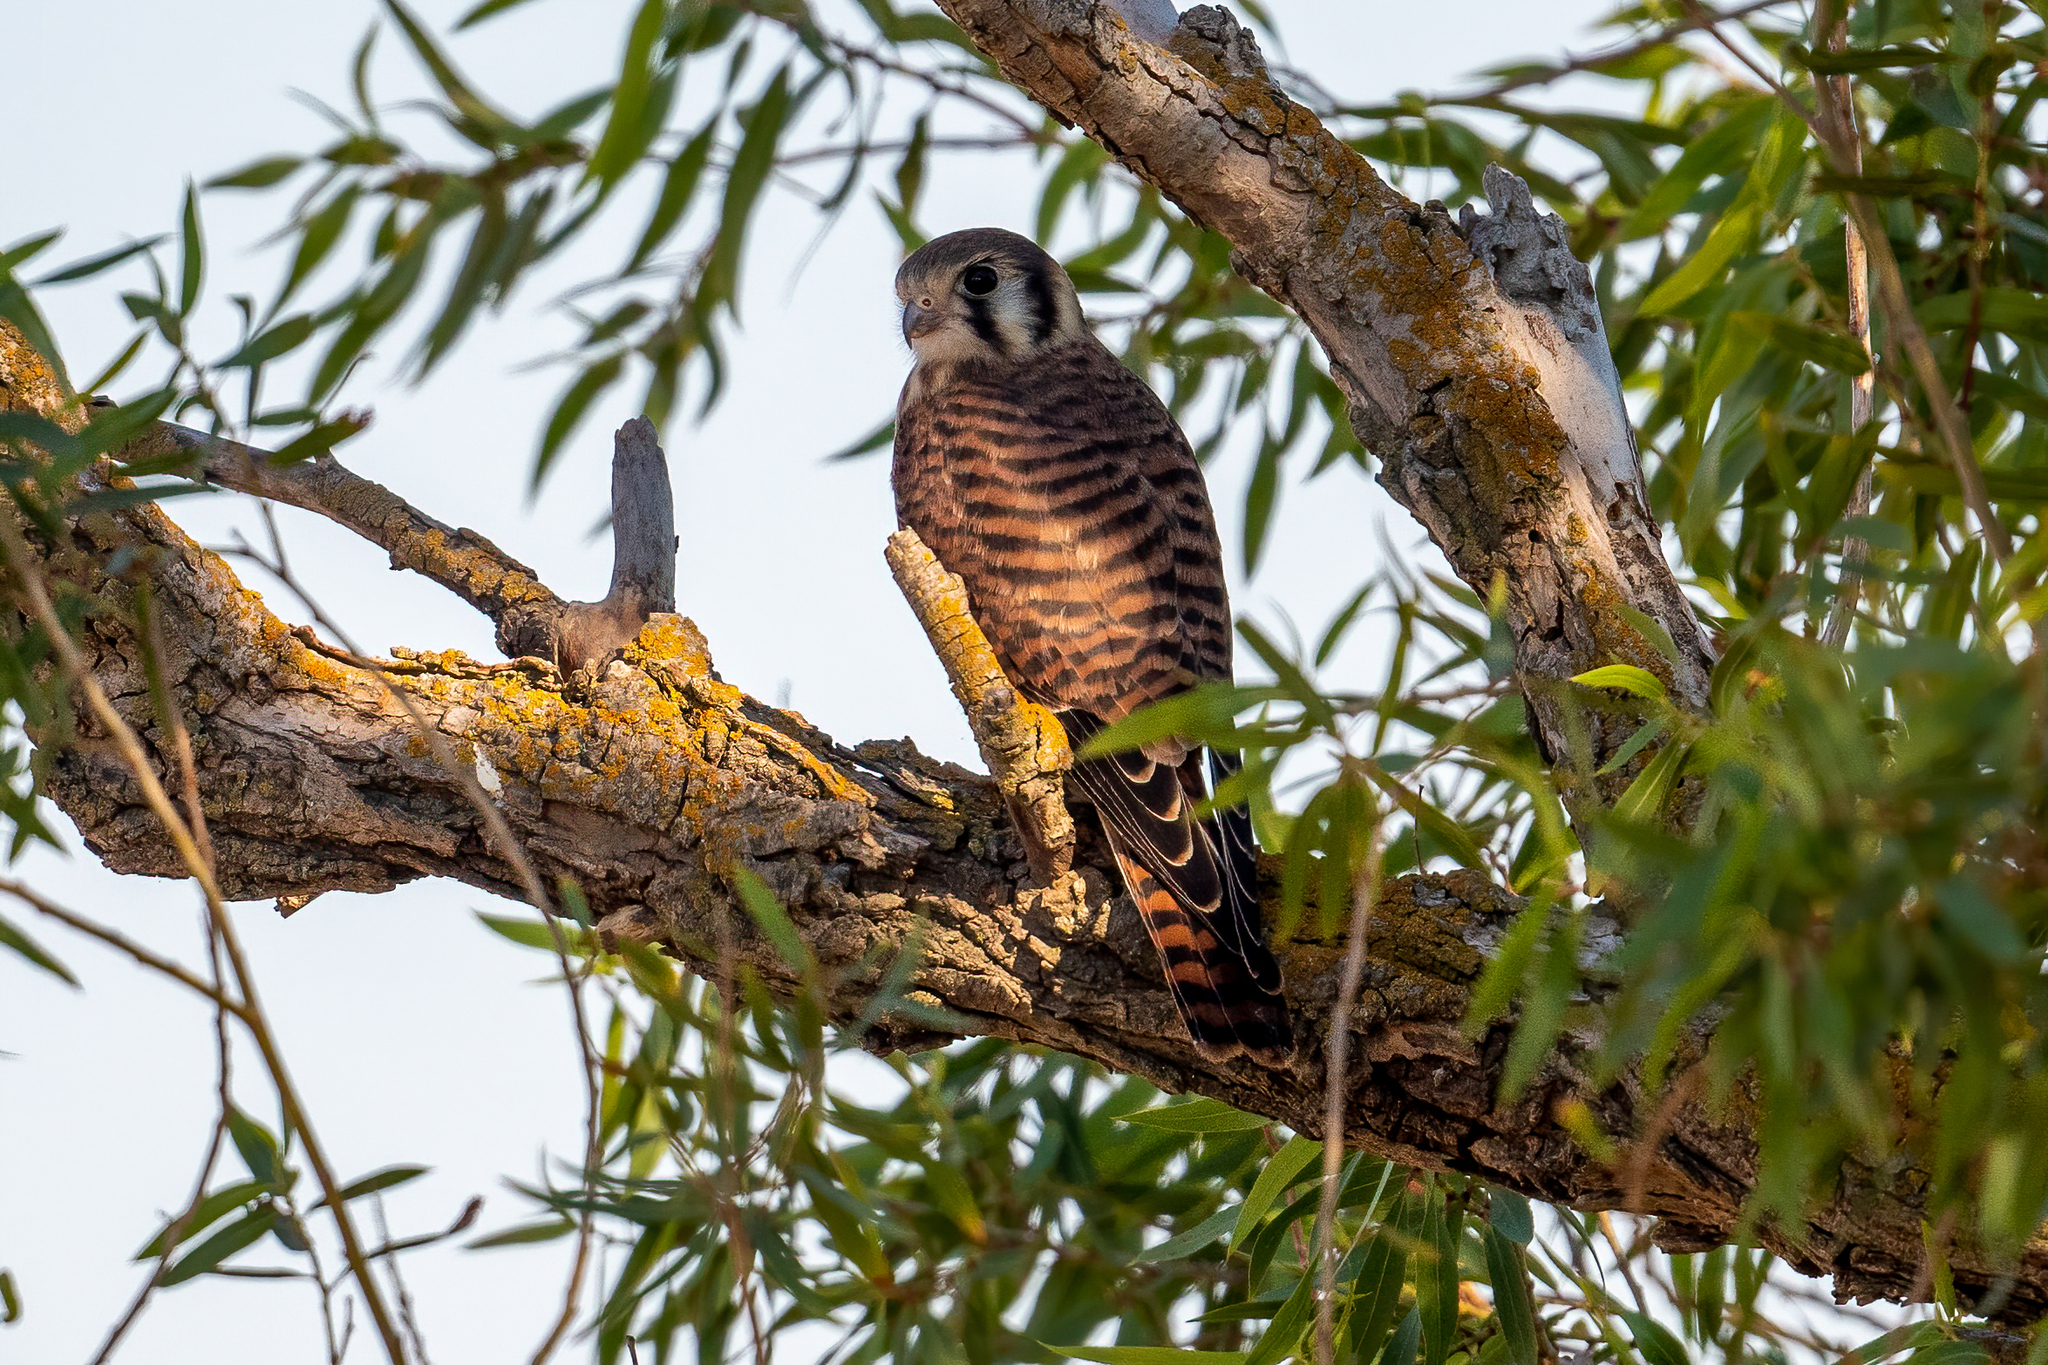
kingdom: Animalia
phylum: Chordata
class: Aves
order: Falconiformes
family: Falconidae
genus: Falco
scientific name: Falco sparverius
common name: American kestrel
